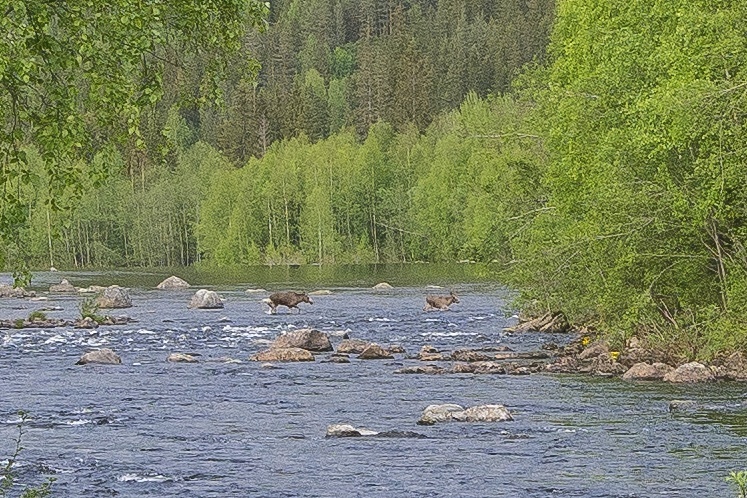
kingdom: Animalia
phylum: Chordata
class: Mammalia
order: Artiodactyla
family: Cervidae
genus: Alces
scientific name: Alces alces
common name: Moose
